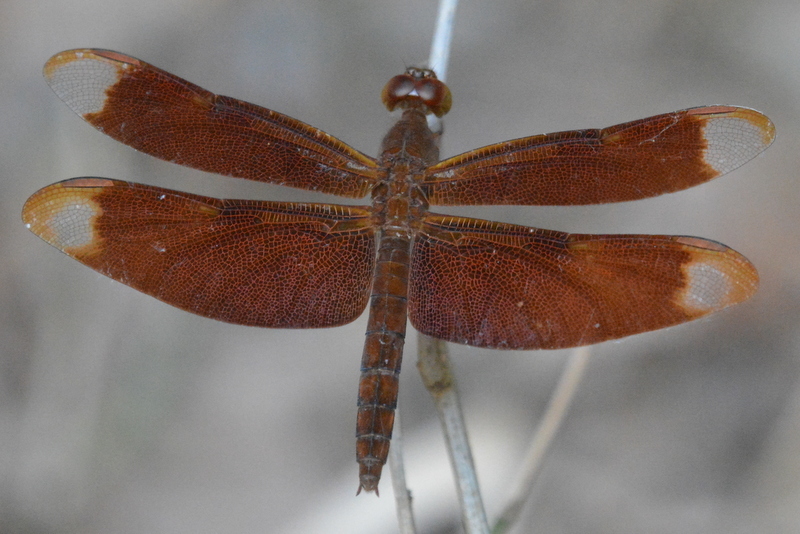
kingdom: Animalia
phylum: Arthropoda
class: Insecta
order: Odonata
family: Libellulidae
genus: Neurothemis
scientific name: Neurothemis fulvia
